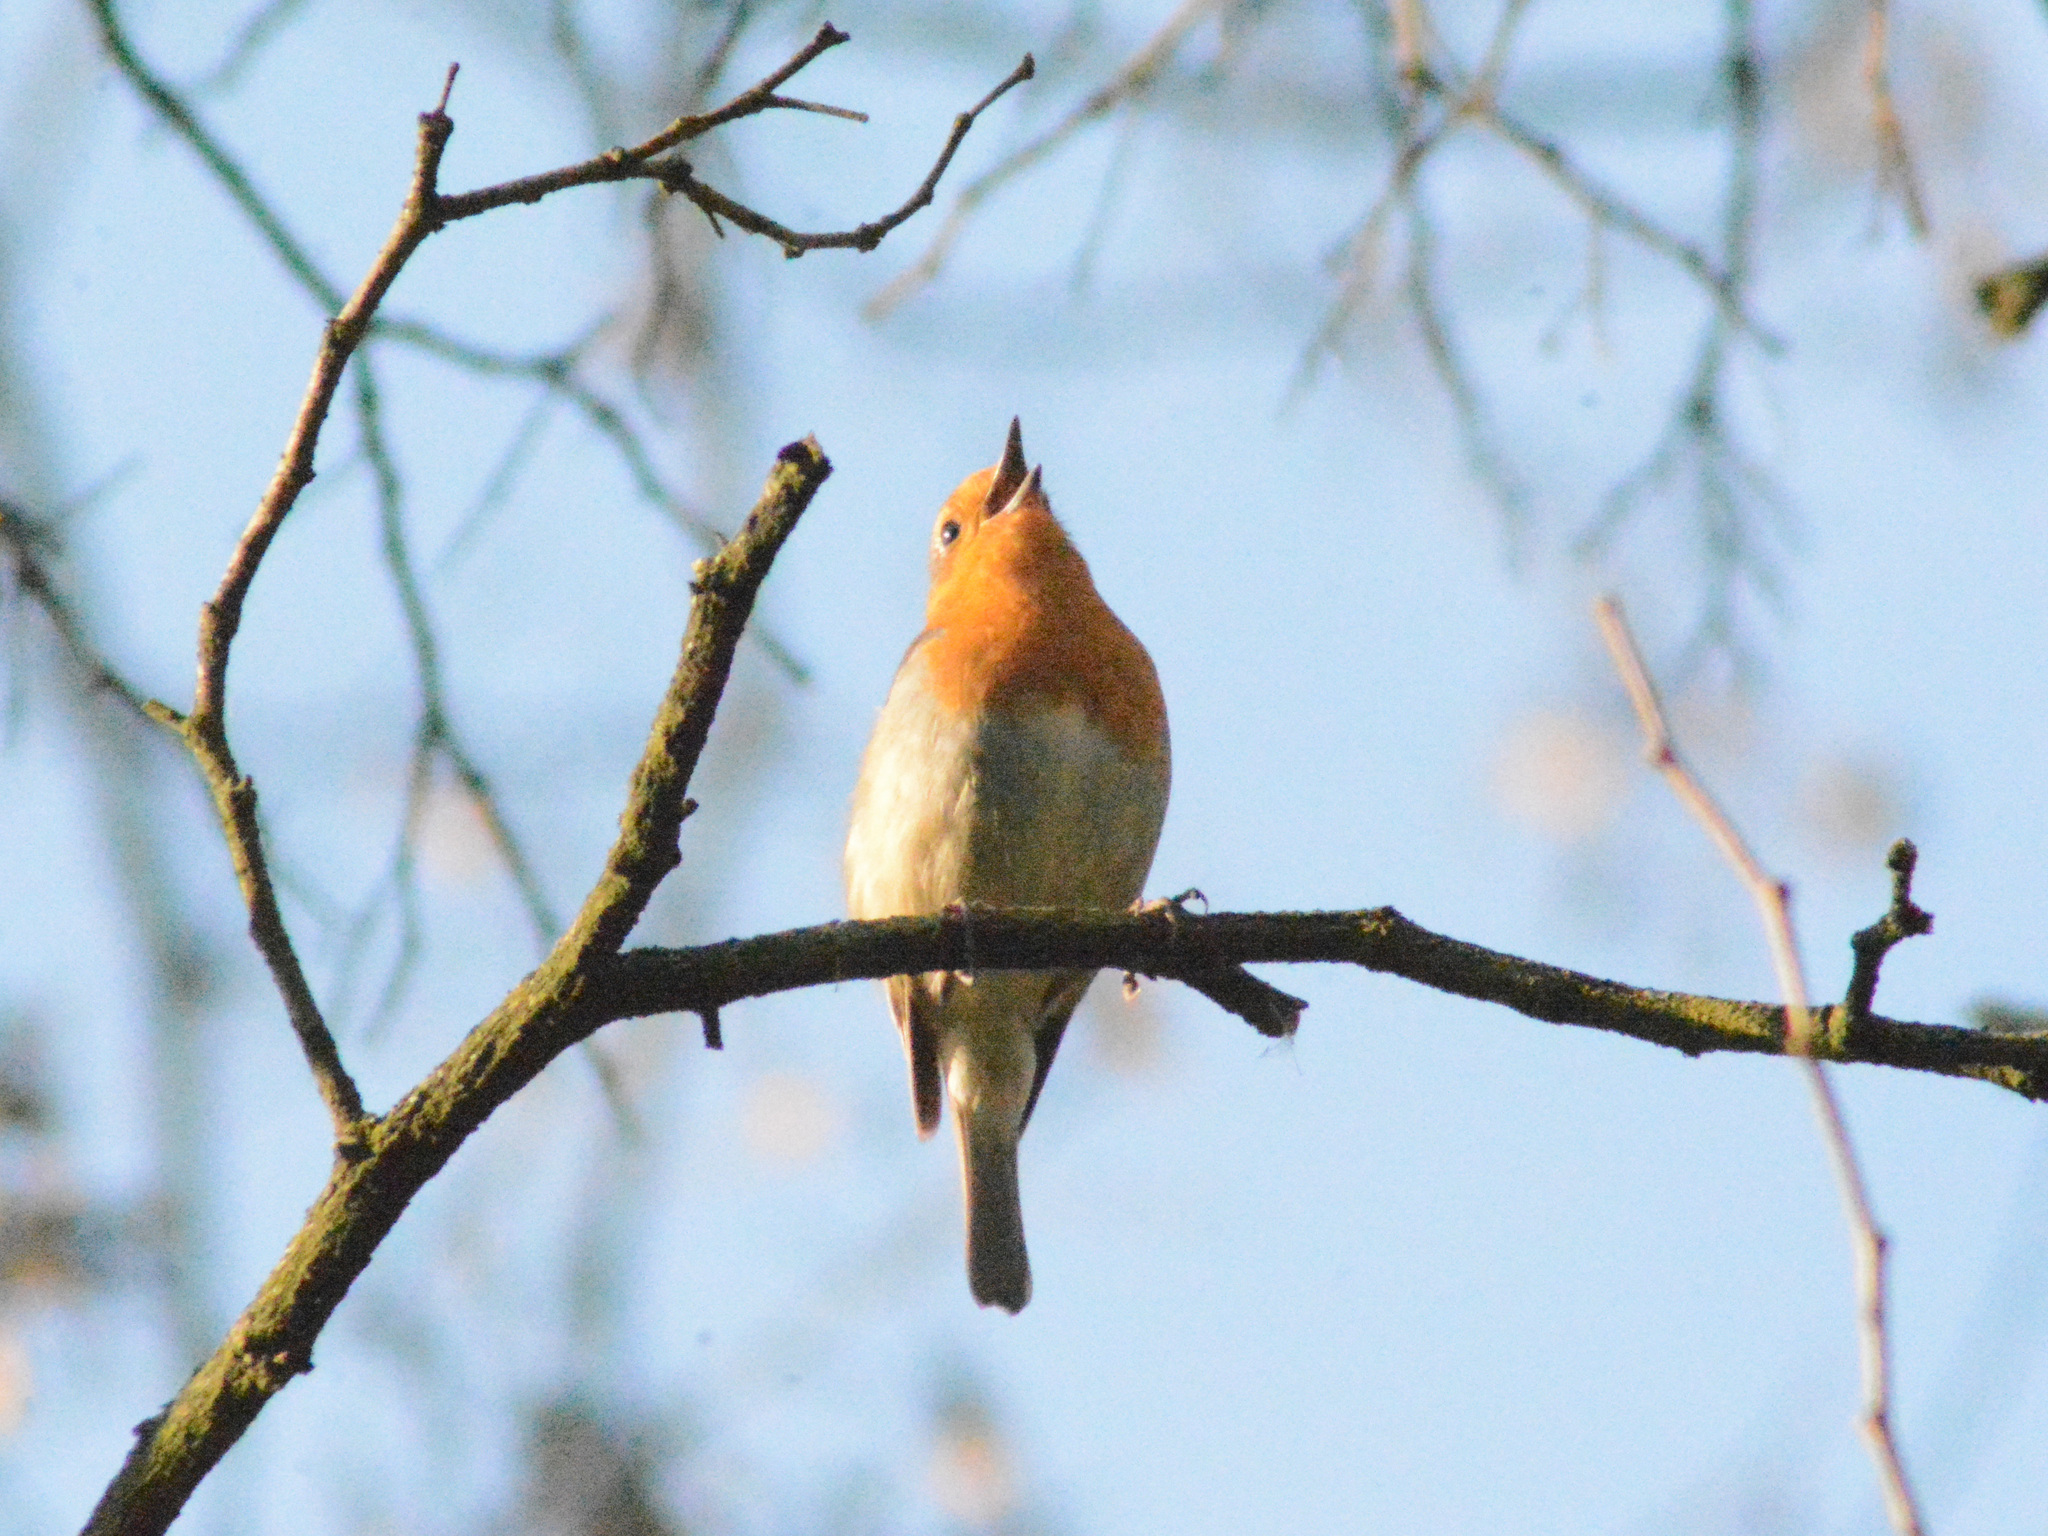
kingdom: Animalia
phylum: Chordata
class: Aves
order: Passeriformes
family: Muscicapidae
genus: Erithacus
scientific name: Erithacus rubecula
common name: European robin
